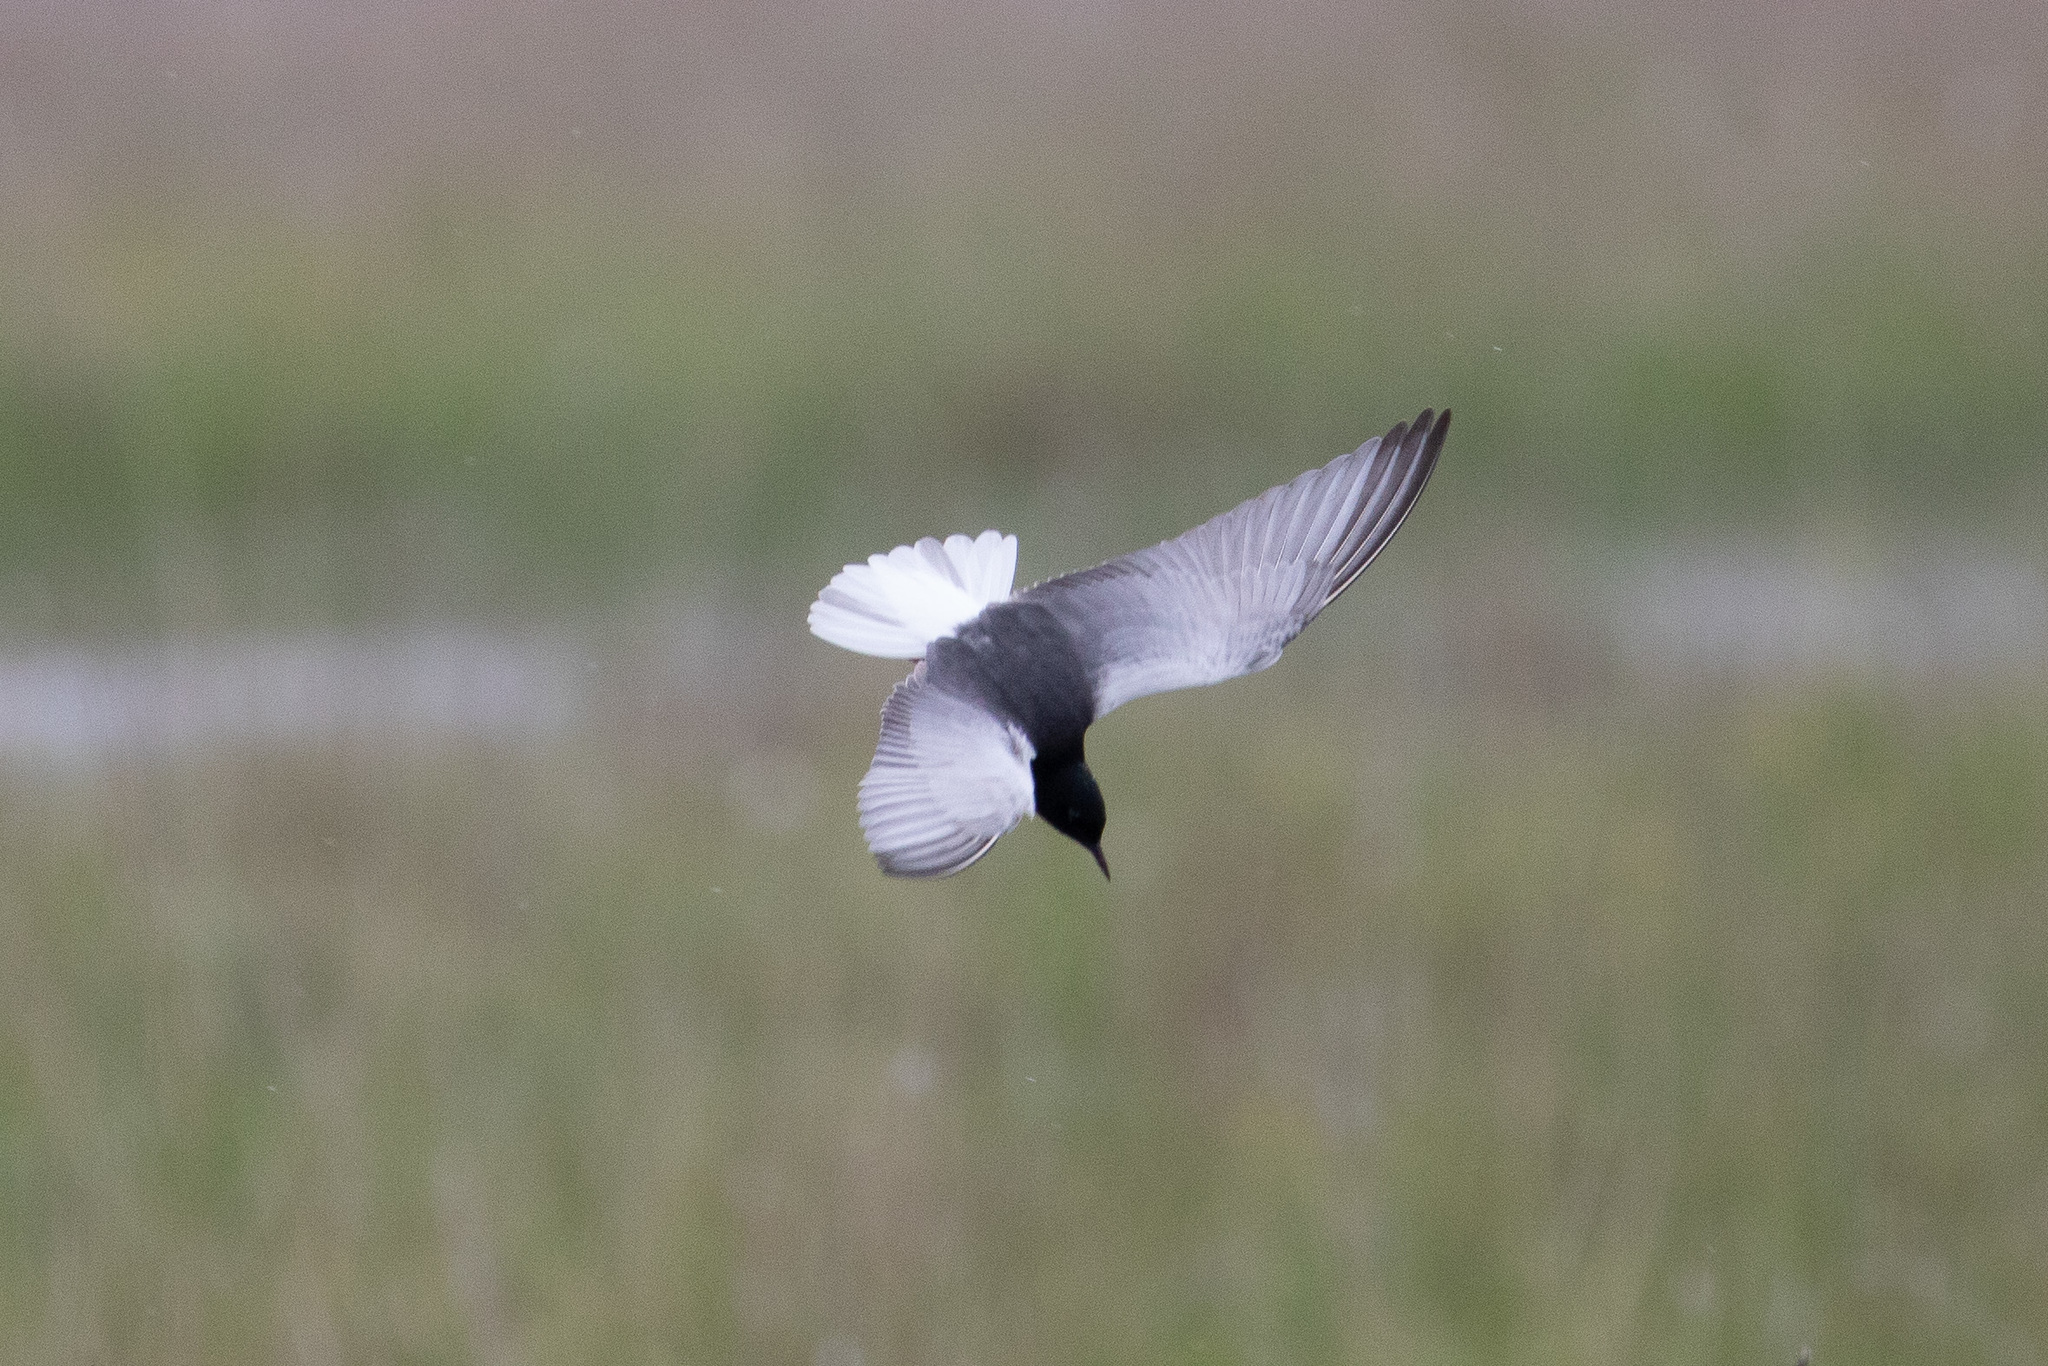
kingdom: Animalia
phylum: Chordata
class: Aves
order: Charadriiformes
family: Laridae
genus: Chlidonias
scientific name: Chlidonias niger
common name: Black tern
